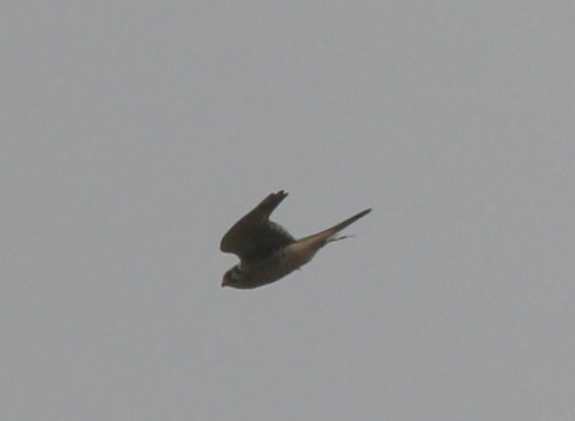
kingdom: Animalia
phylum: Chordata
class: Aves
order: Falconiformes
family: Falconidae
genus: Falco
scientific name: Falco sparverius
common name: American kestrel
